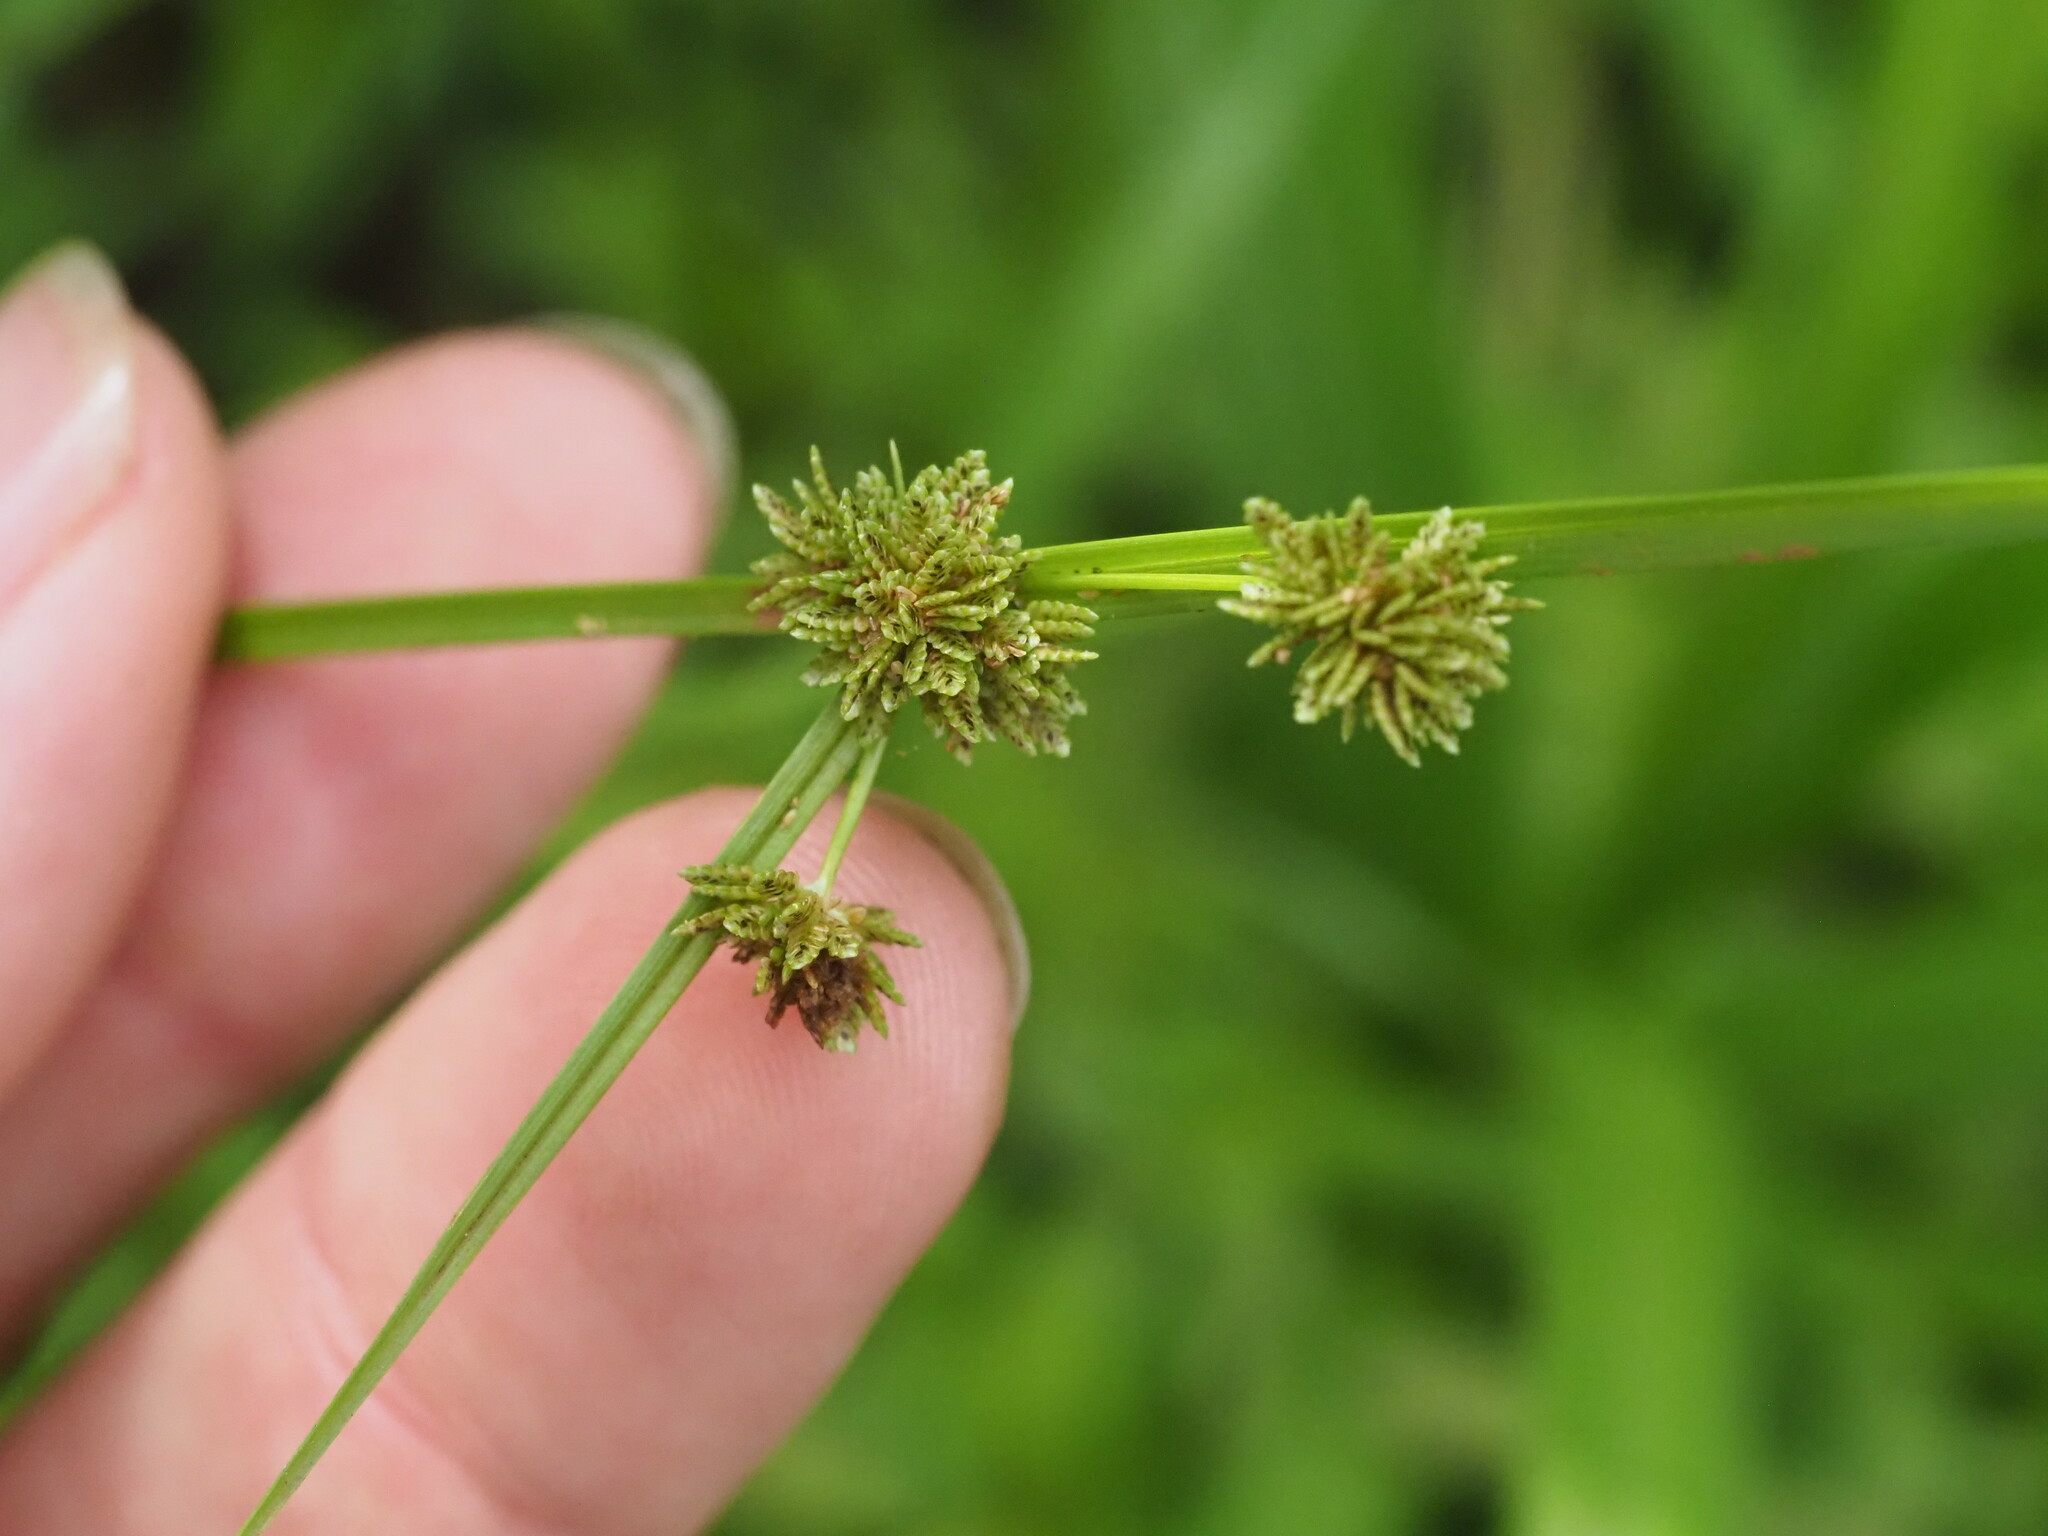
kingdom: Plantae
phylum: Tracheophyta
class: Liliopsida
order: Poales
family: Cyperaceae
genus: Cyperus
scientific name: Cyperus difformis
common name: Variable flatsedge
